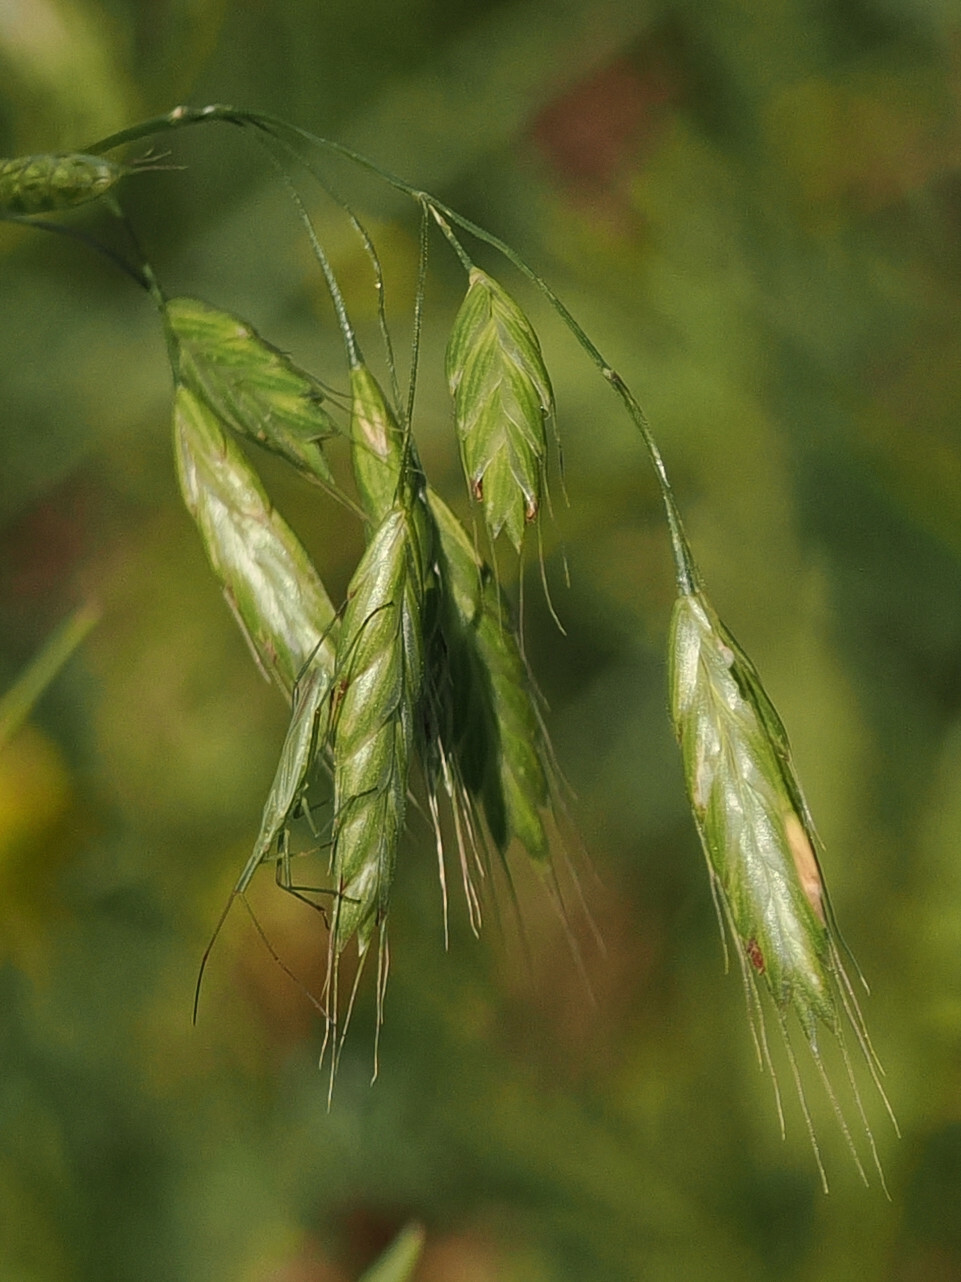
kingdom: Animalia
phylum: Arthropoda
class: Insecta
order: Hemiptera
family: Miridae
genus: Megaloceroea
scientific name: Megaloceroea recticornis
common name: Plant bug
